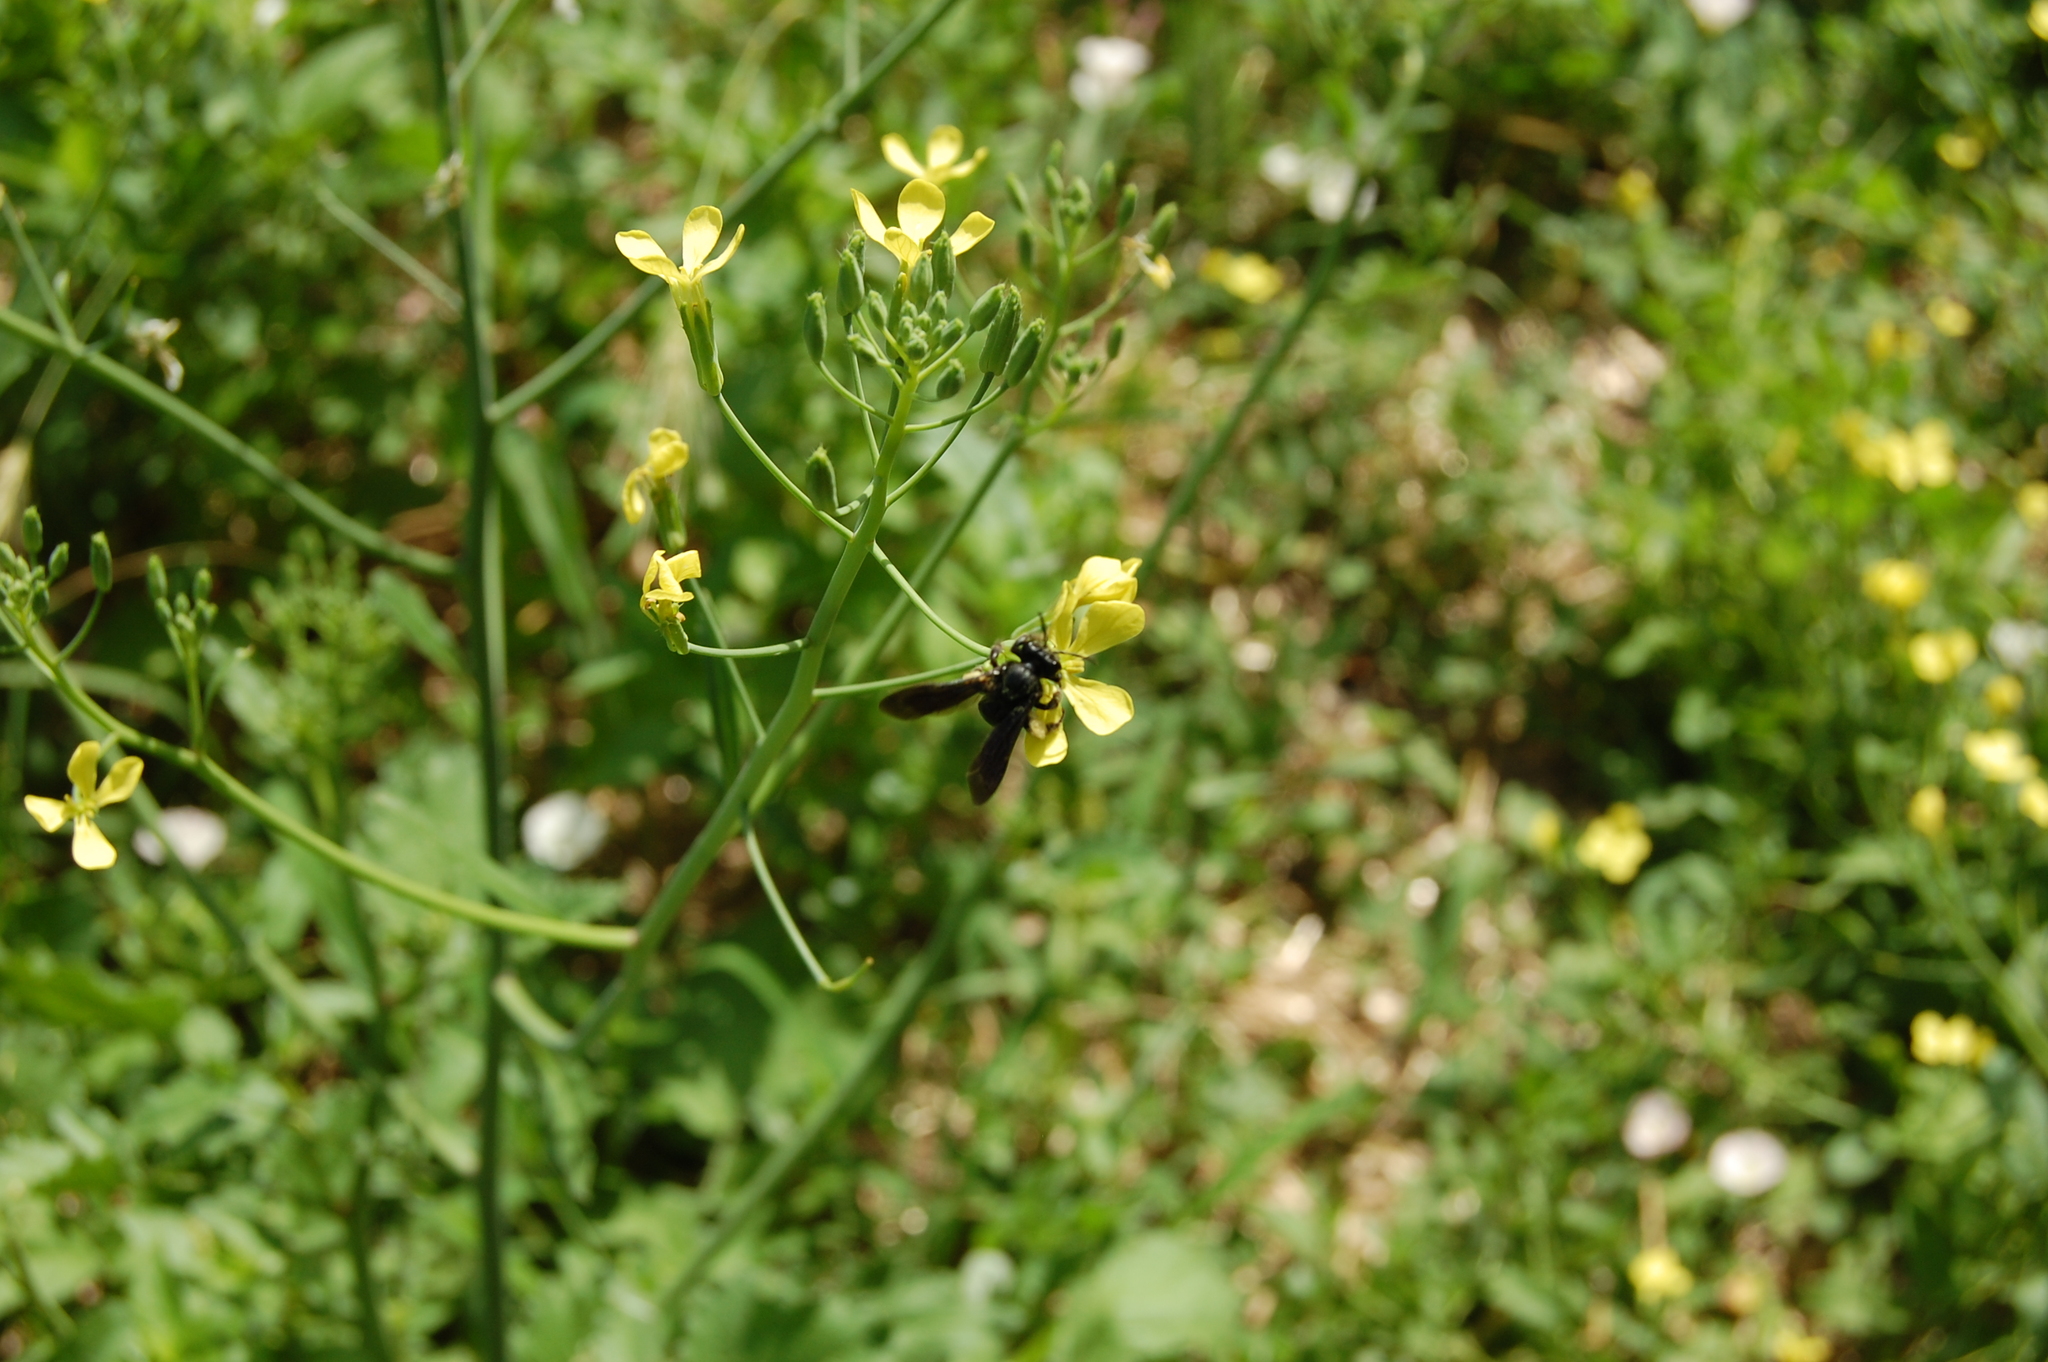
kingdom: Plantae
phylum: Tracheophyta
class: Magnoliopsida
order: Brassicales
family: Brassicaceae
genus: Raphanus
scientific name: Raphanus raphanistrum
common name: Wild radish
